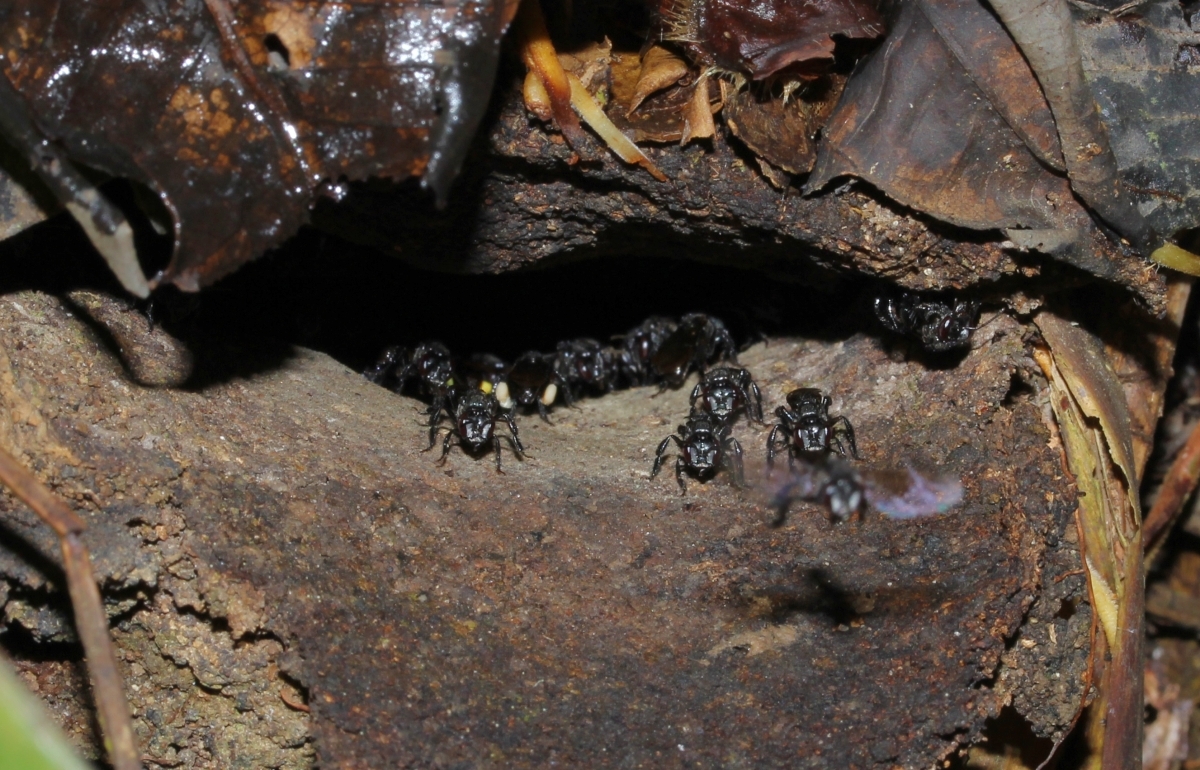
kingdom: Animalia
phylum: Arthropoda
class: Insecta
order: Hymenoptera
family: Apidae
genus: Trigona
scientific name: Trigona
